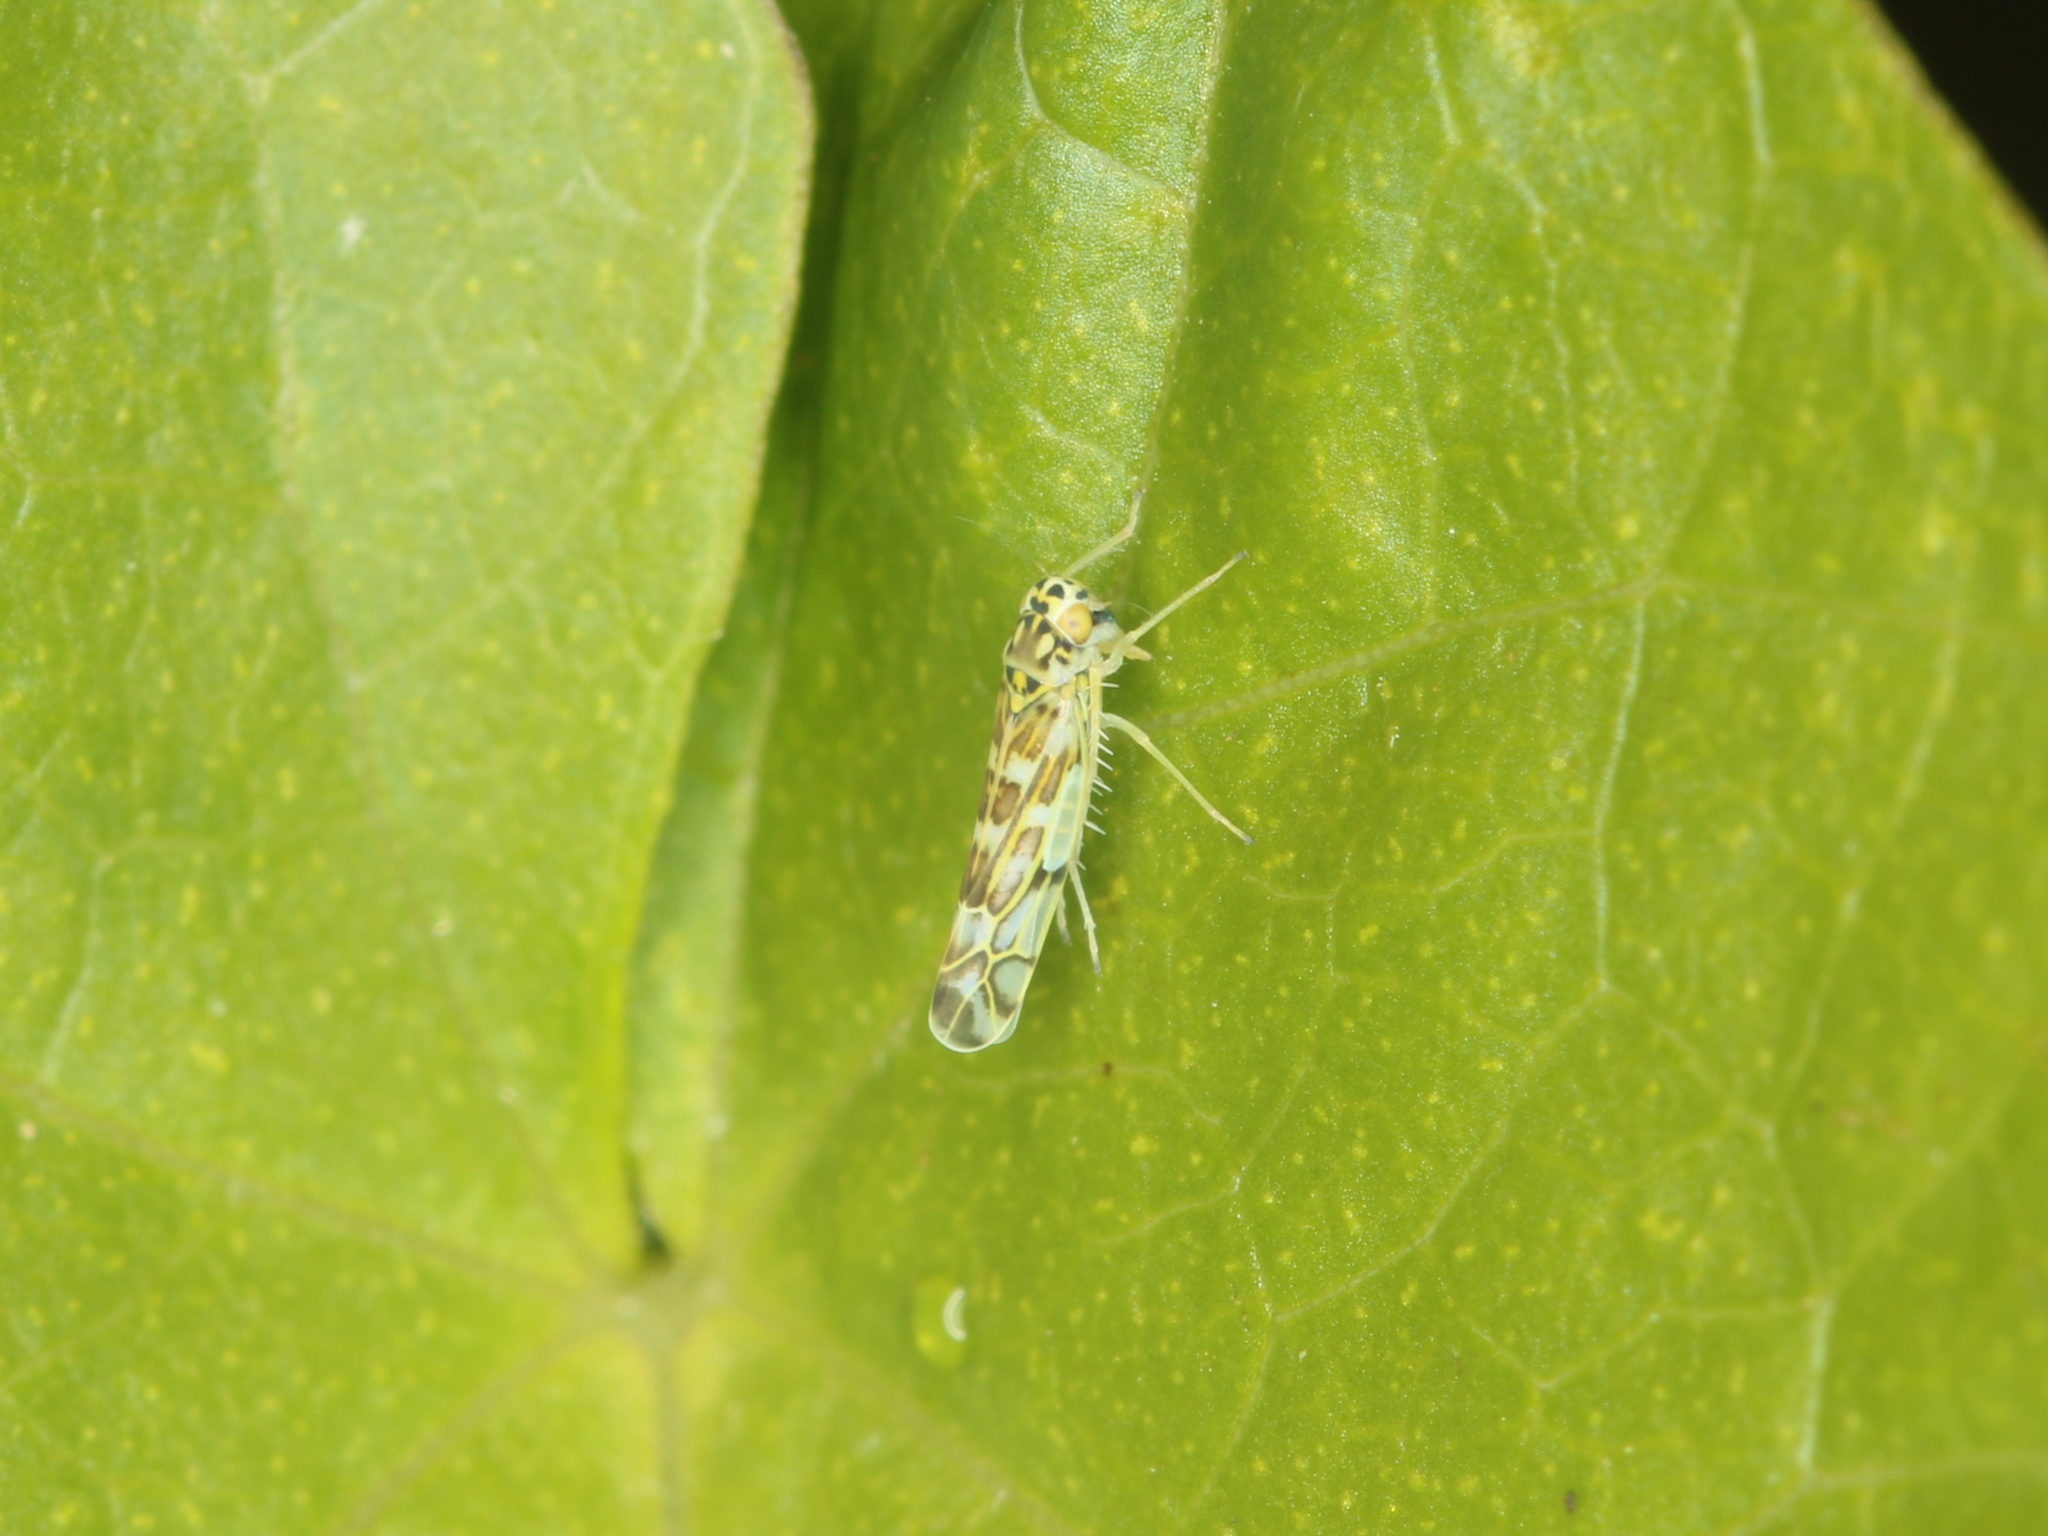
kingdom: Animalia
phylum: Arthropoda
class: Insecta
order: Hemiptera
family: Cicadellidae
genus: Eupteryx
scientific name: Eupteryx melissae
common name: Herb leafhopper
